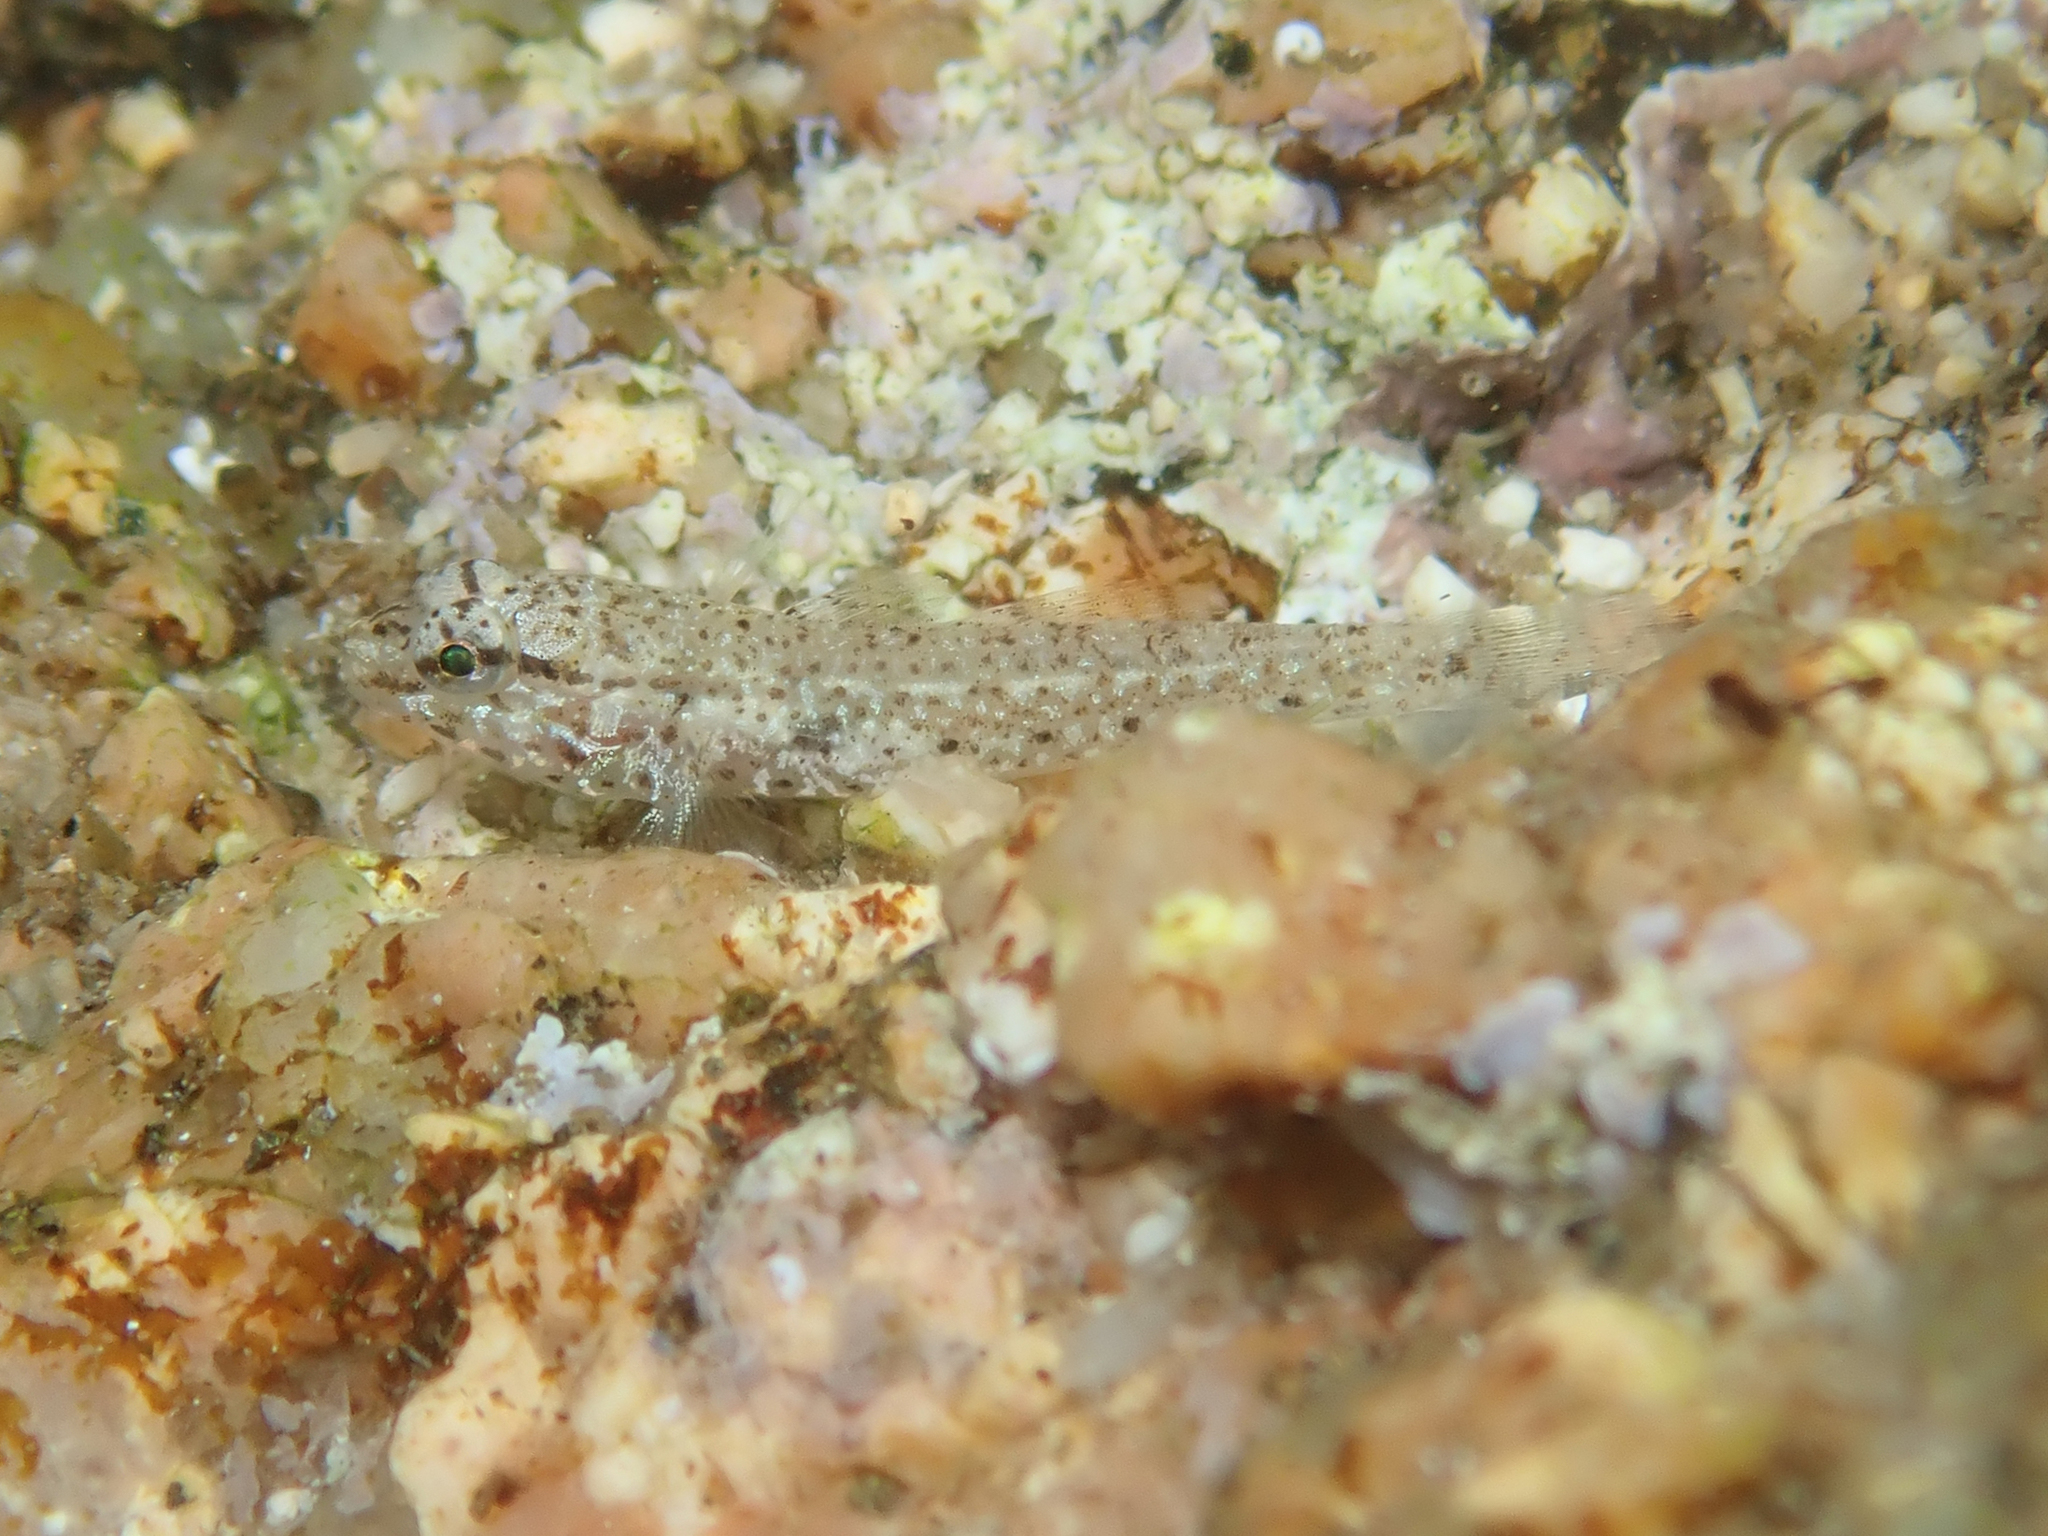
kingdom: Animalia
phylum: Chordata
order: Perciformes
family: Gobiidae
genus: Gobius
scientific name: Gobius incognitus
